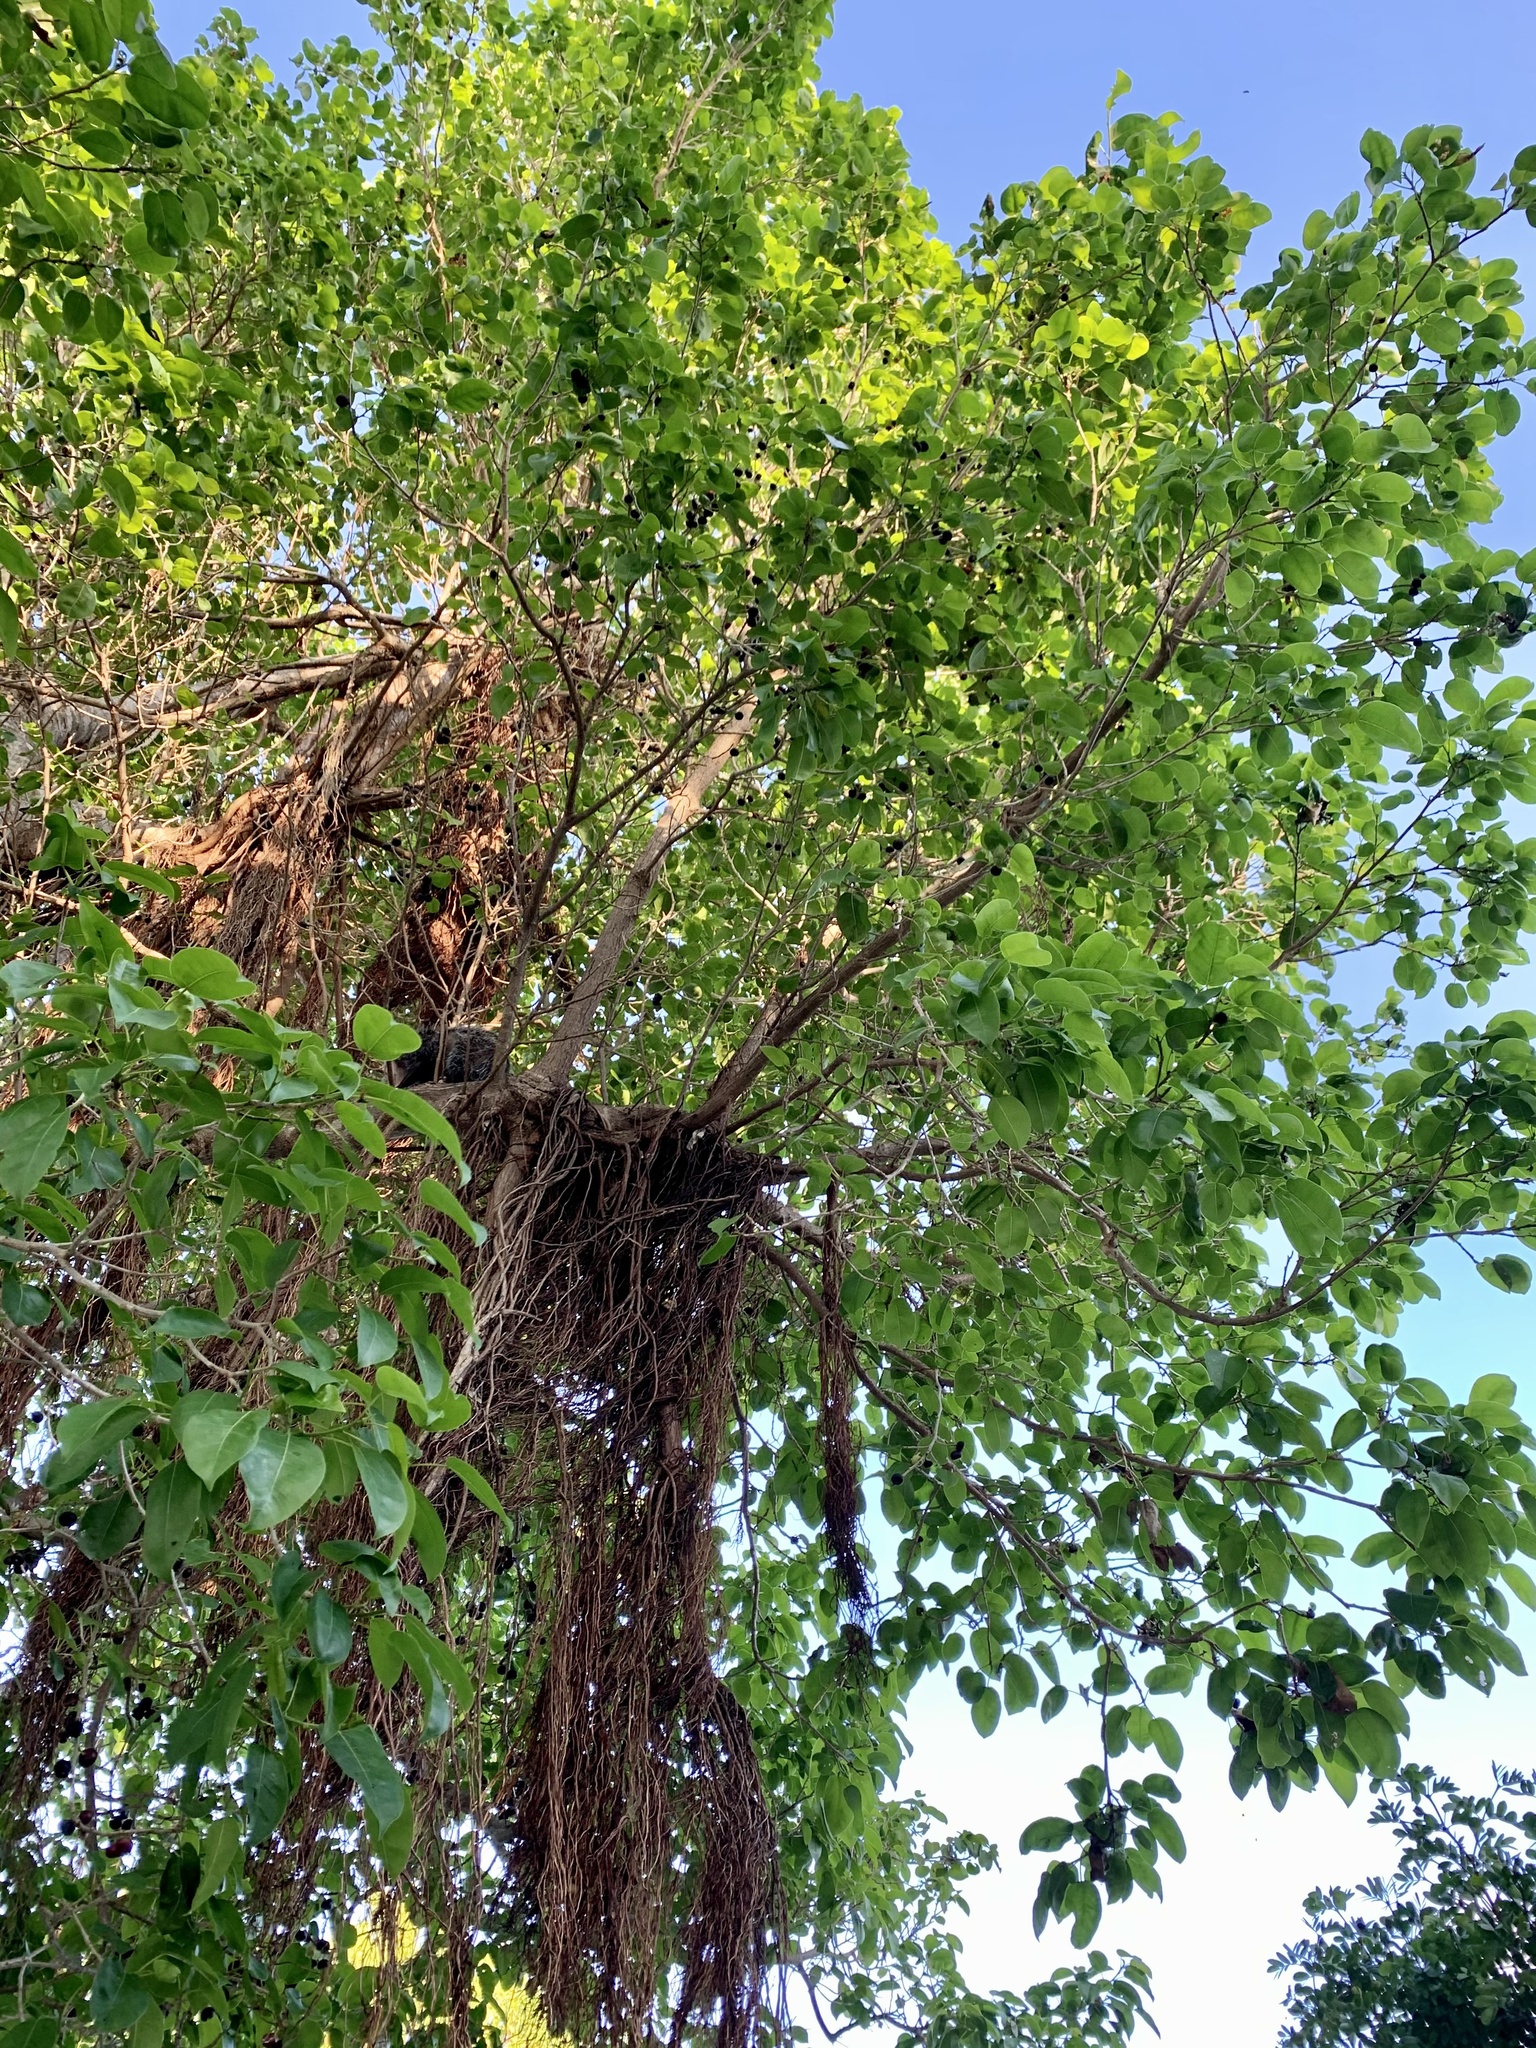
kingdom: Plantae
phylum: Tracheophyta
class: Magnoliopsida
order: Rosales
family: Moraceae
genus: Ficus
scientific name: Ficus citrifolia
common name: Strangler fig
